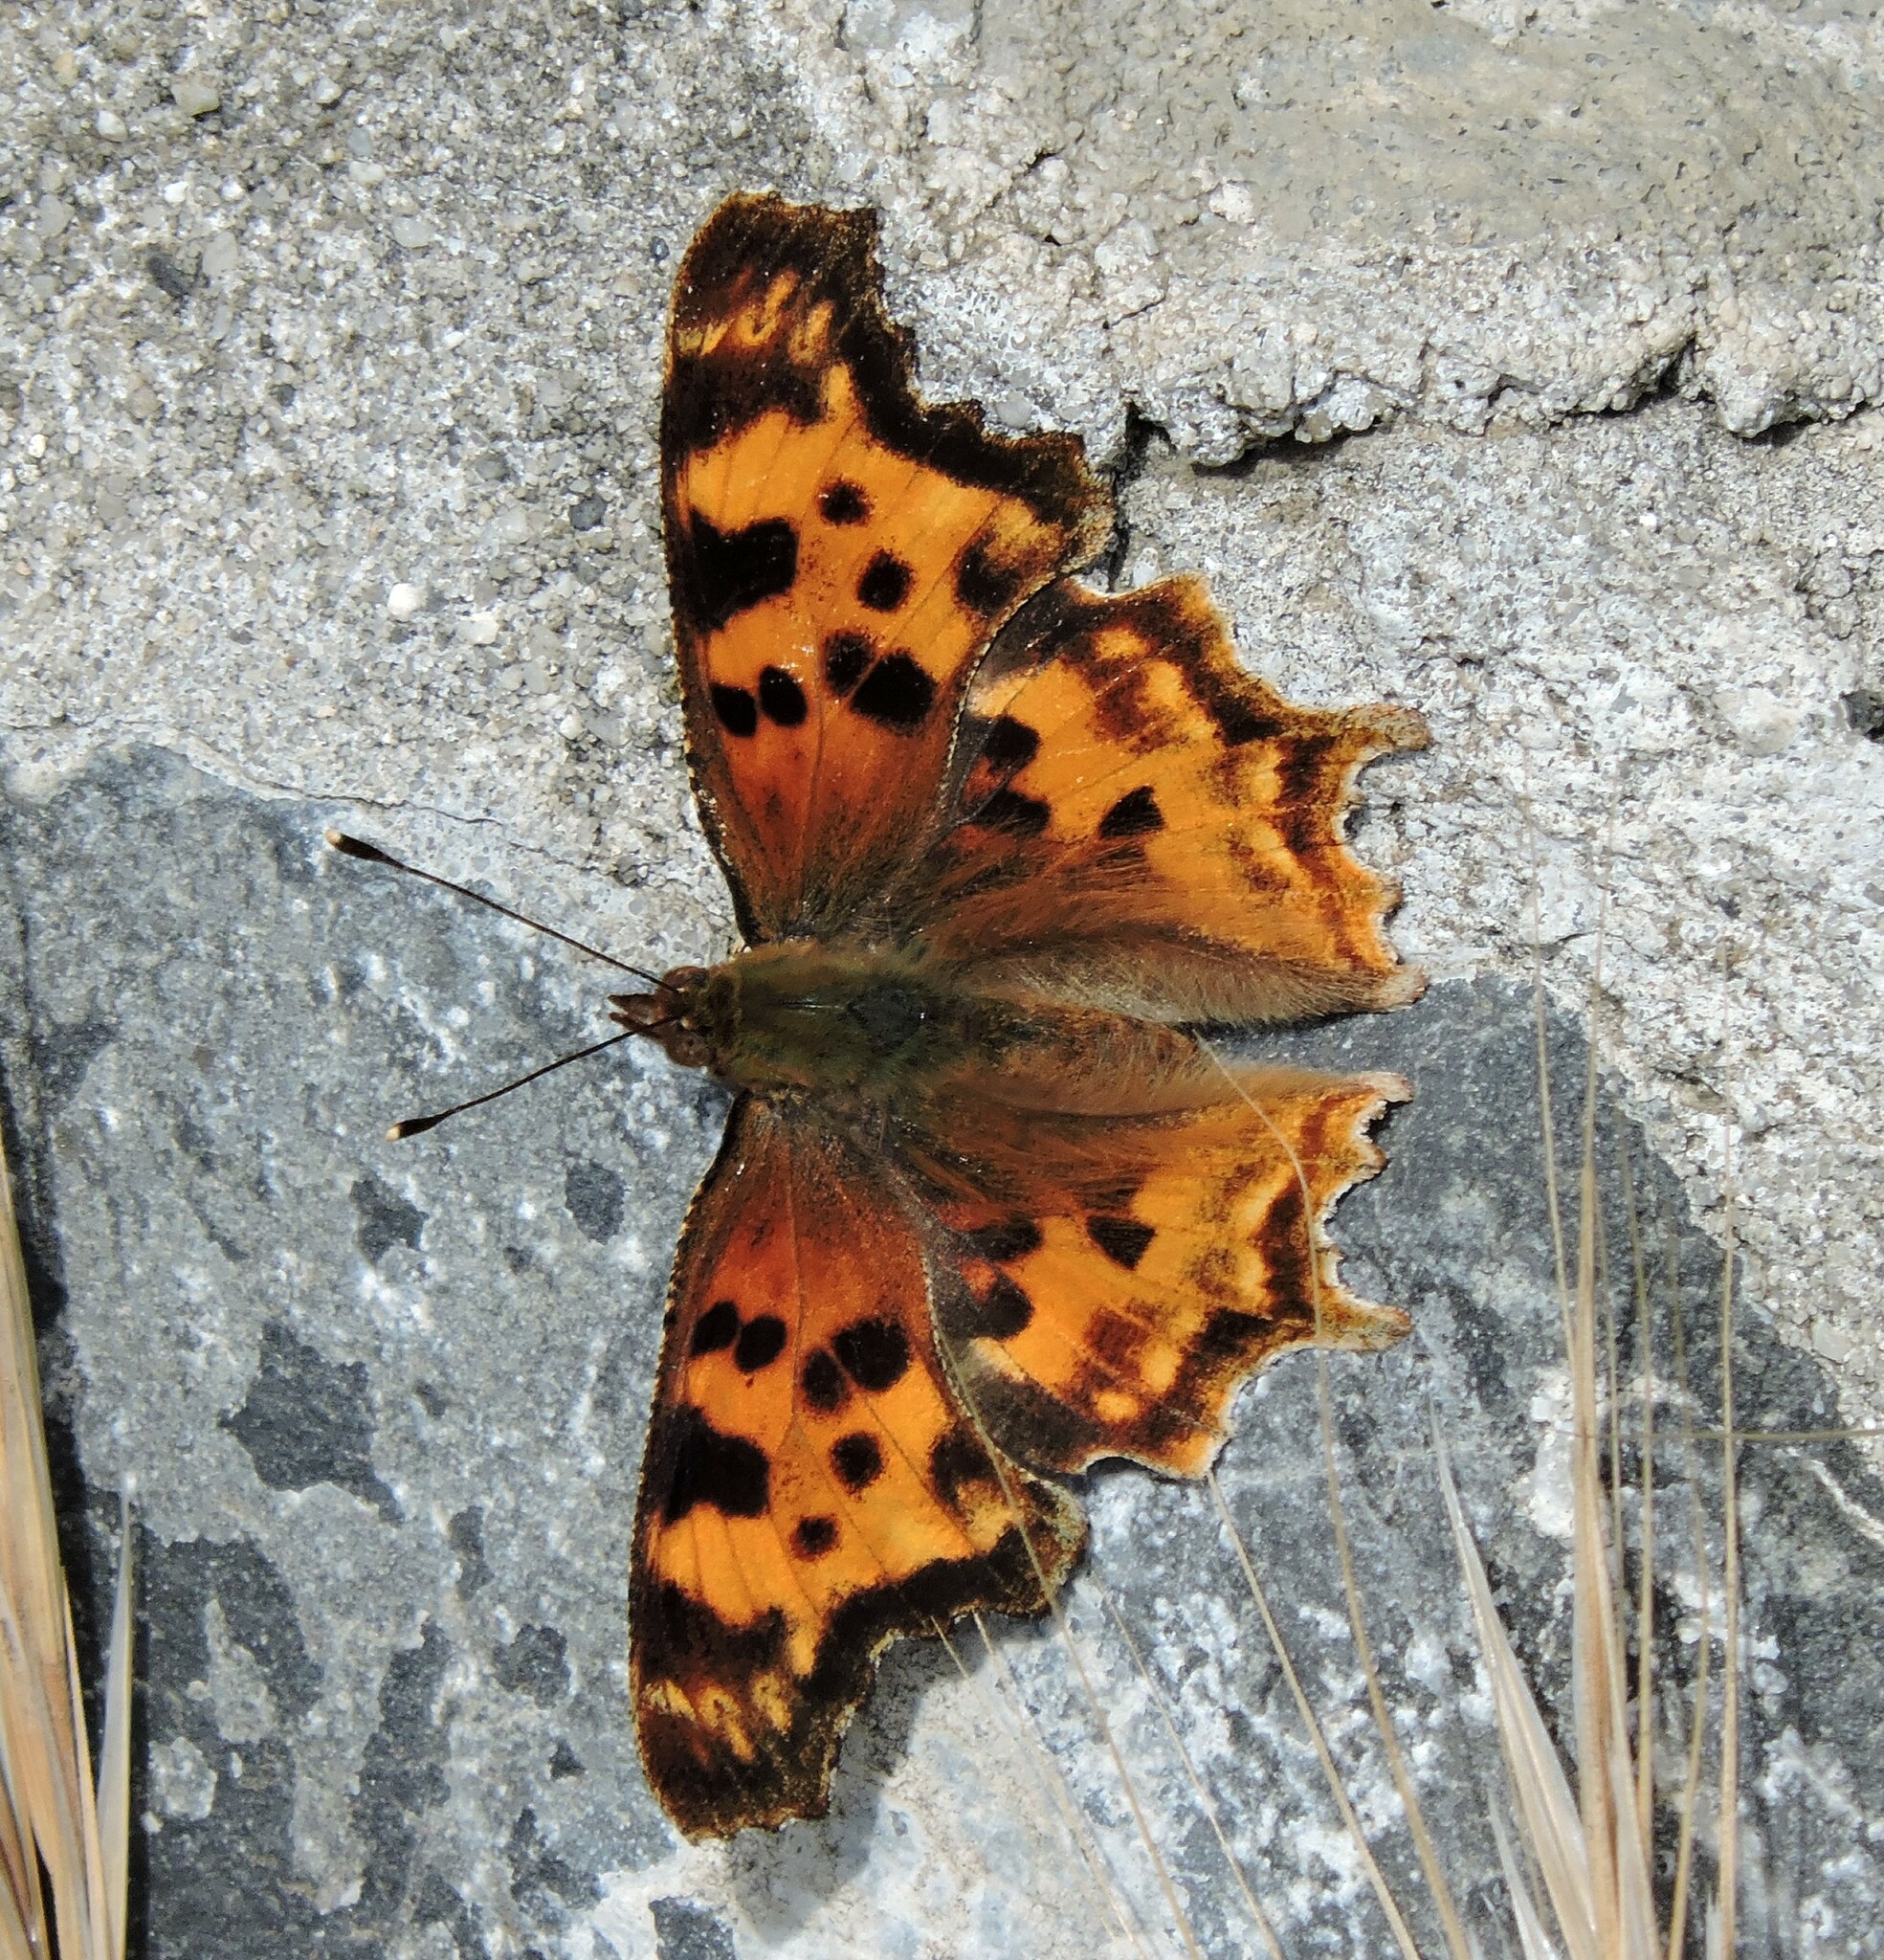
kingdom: Animalia
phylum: Arthropoda
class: Insecta
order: Lepidoptera
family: Nymphalidae
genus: Polygonia
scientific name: Polygonia satyrus
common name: Satyr angle wing
